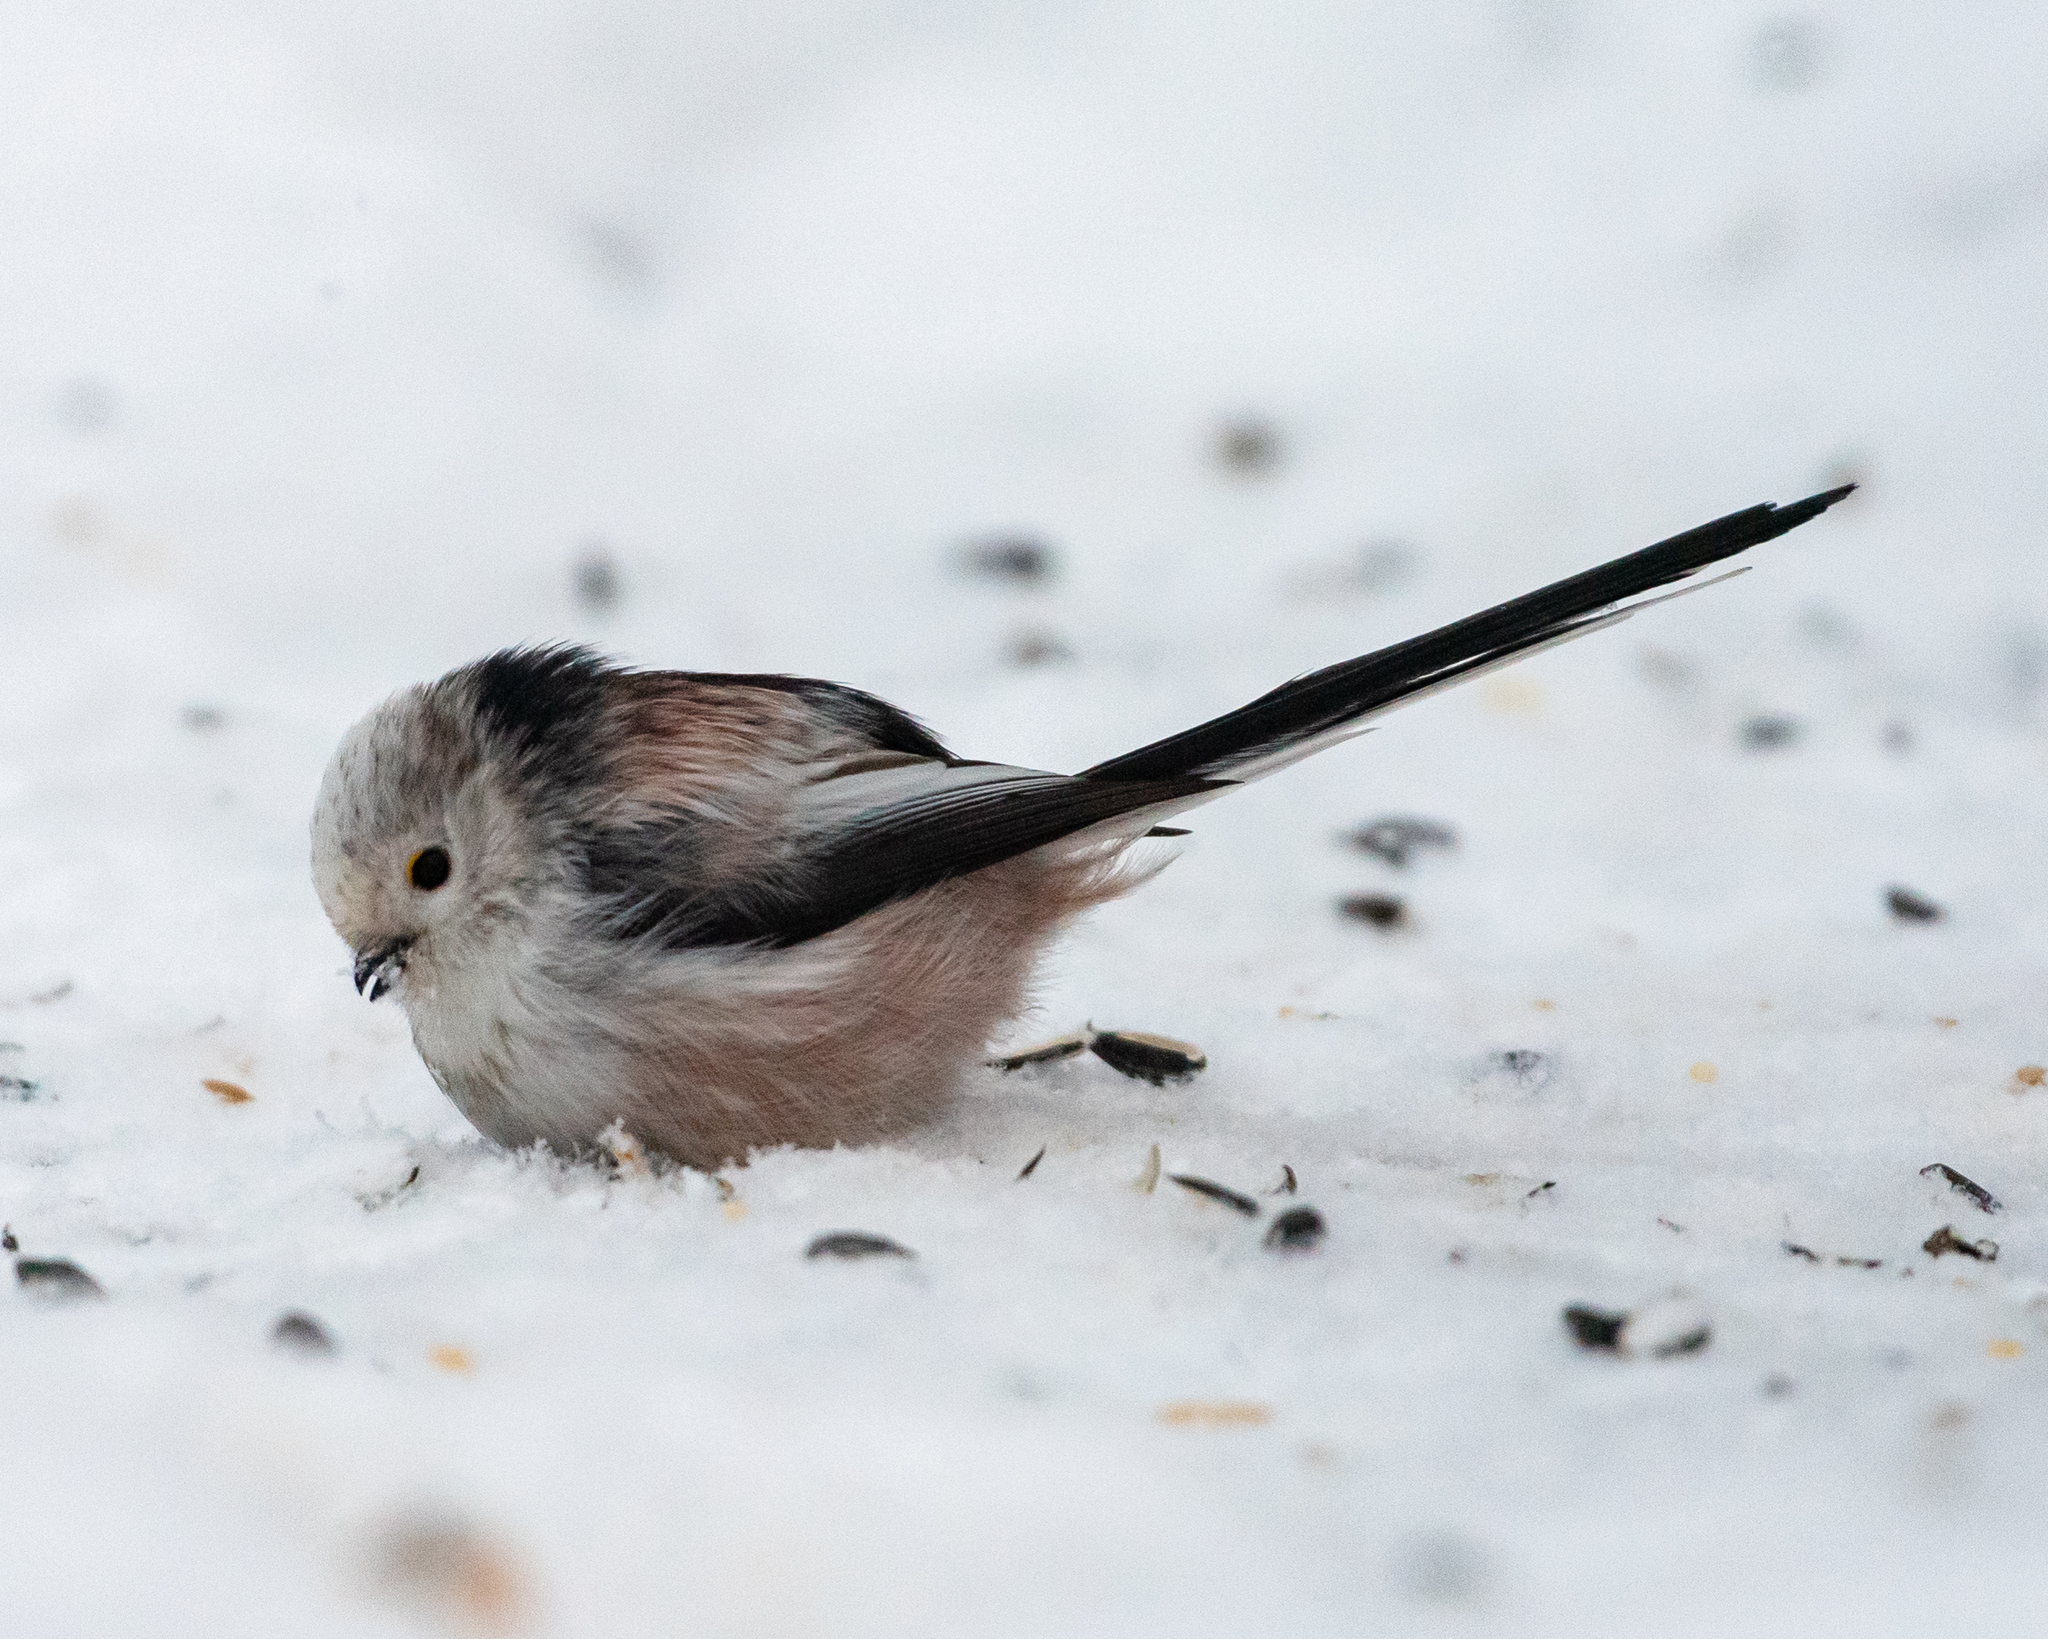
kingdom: Animalia
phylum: Chordata
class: Aves
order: Passeriformes
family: Aegithalidae
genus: Aegithalos
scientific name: Aegithalos caudatus
